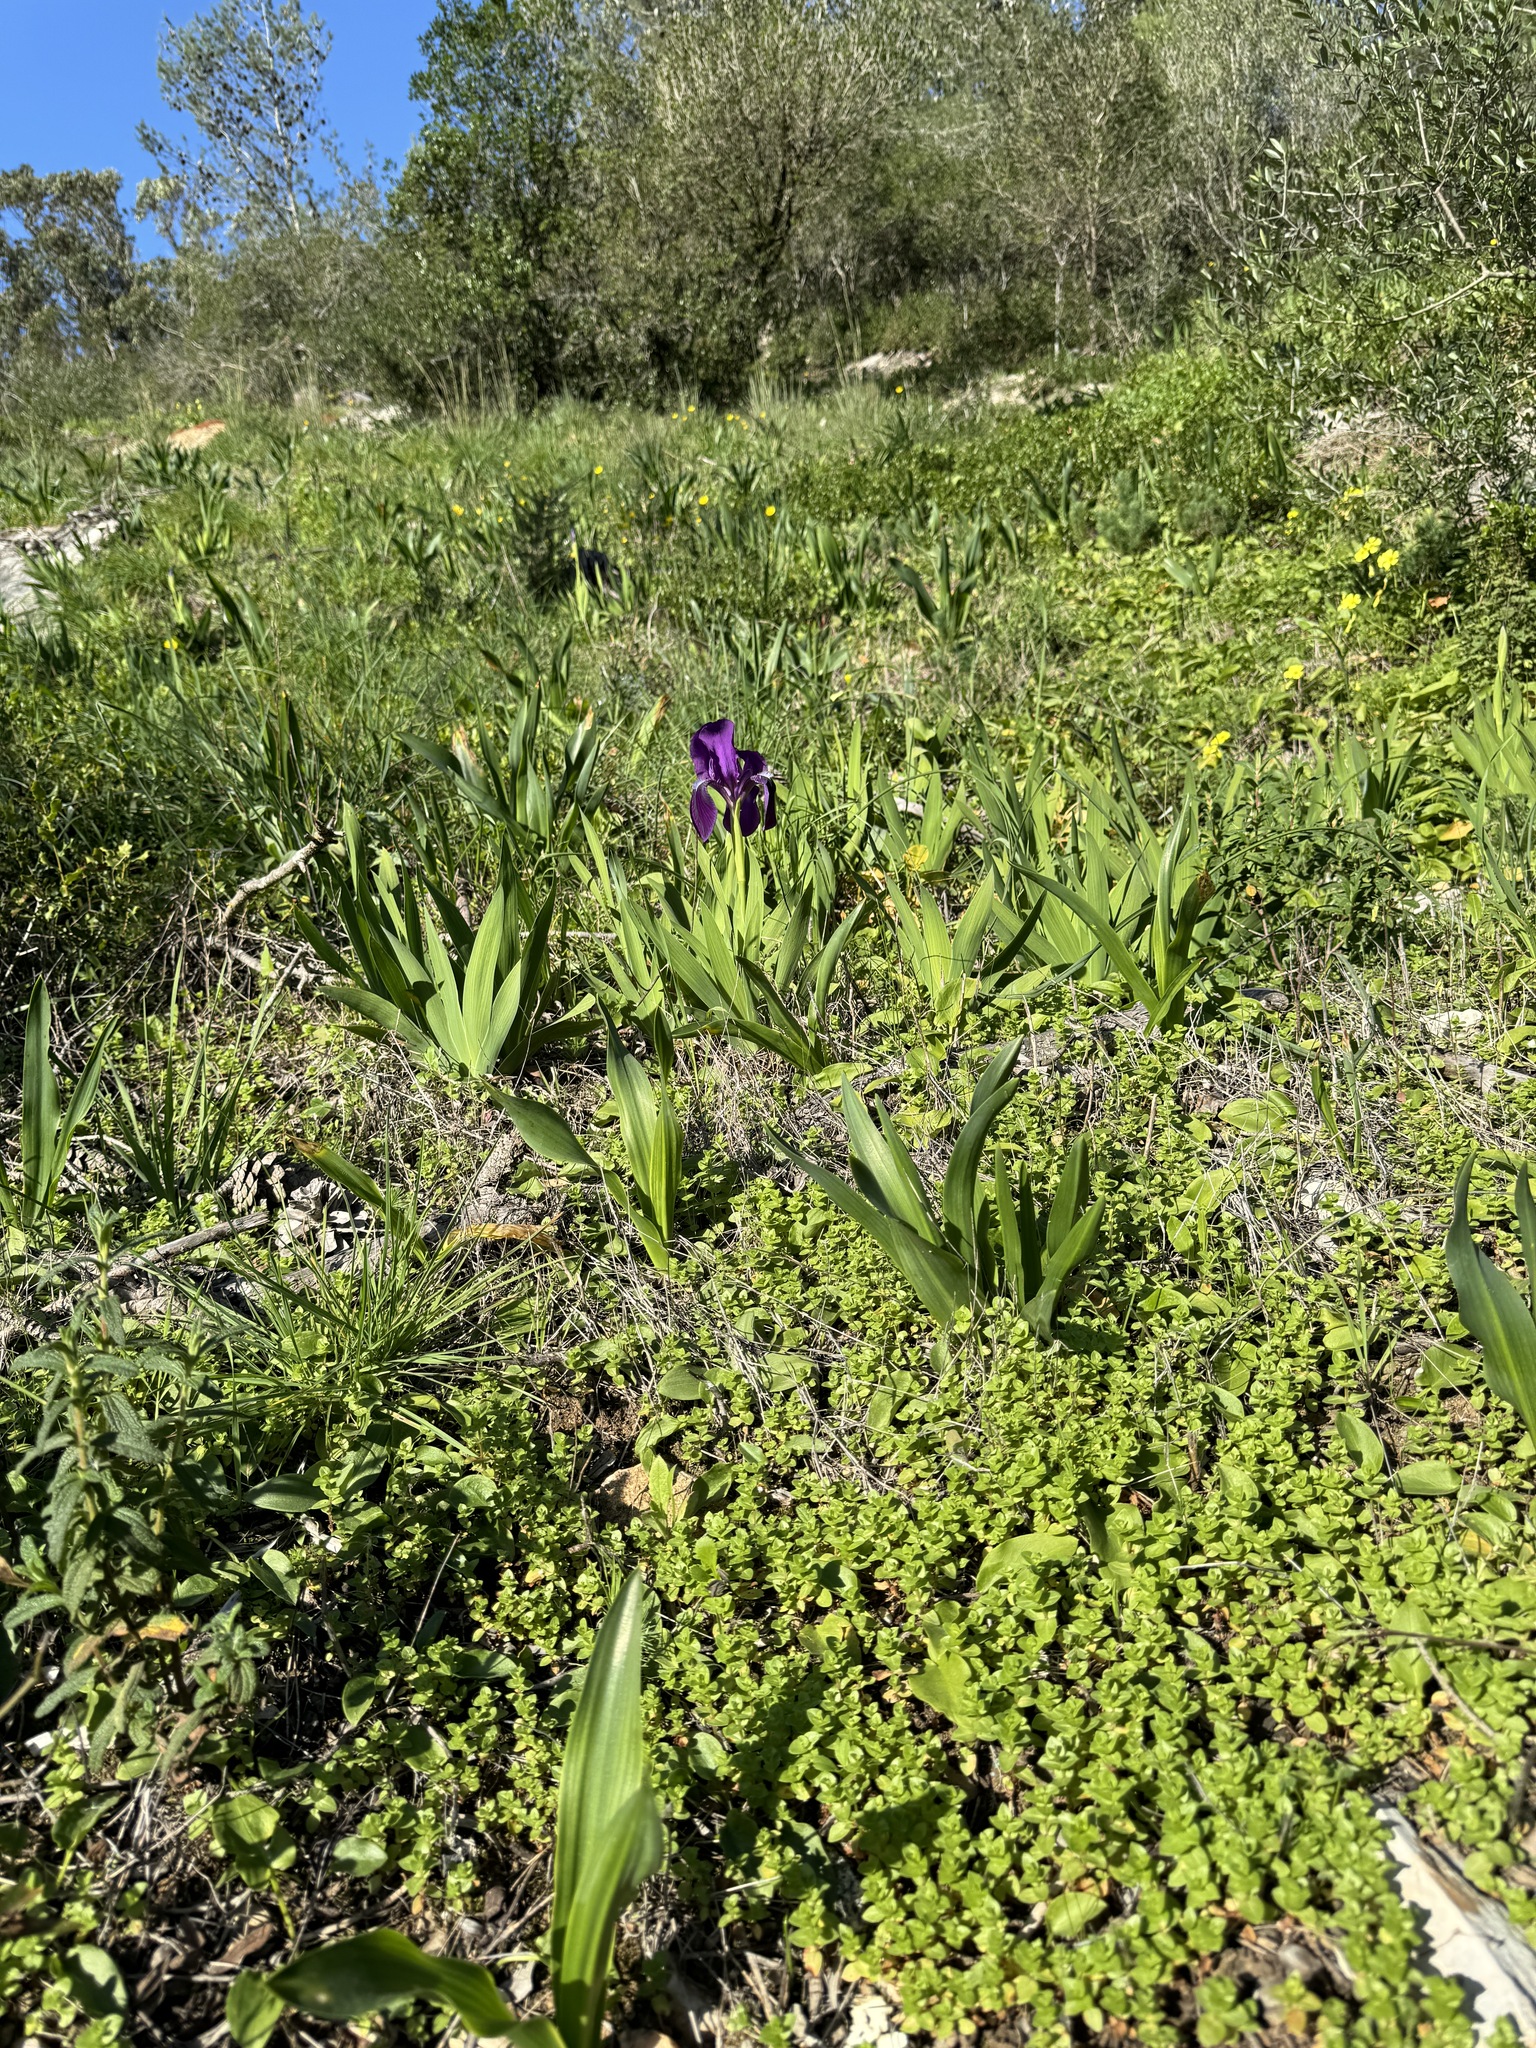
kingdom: Plantae
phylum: Tracheophyta
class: Liliopsida
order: Asparagales
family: Iridaceae
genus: Iris
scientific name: Iris lutescens
